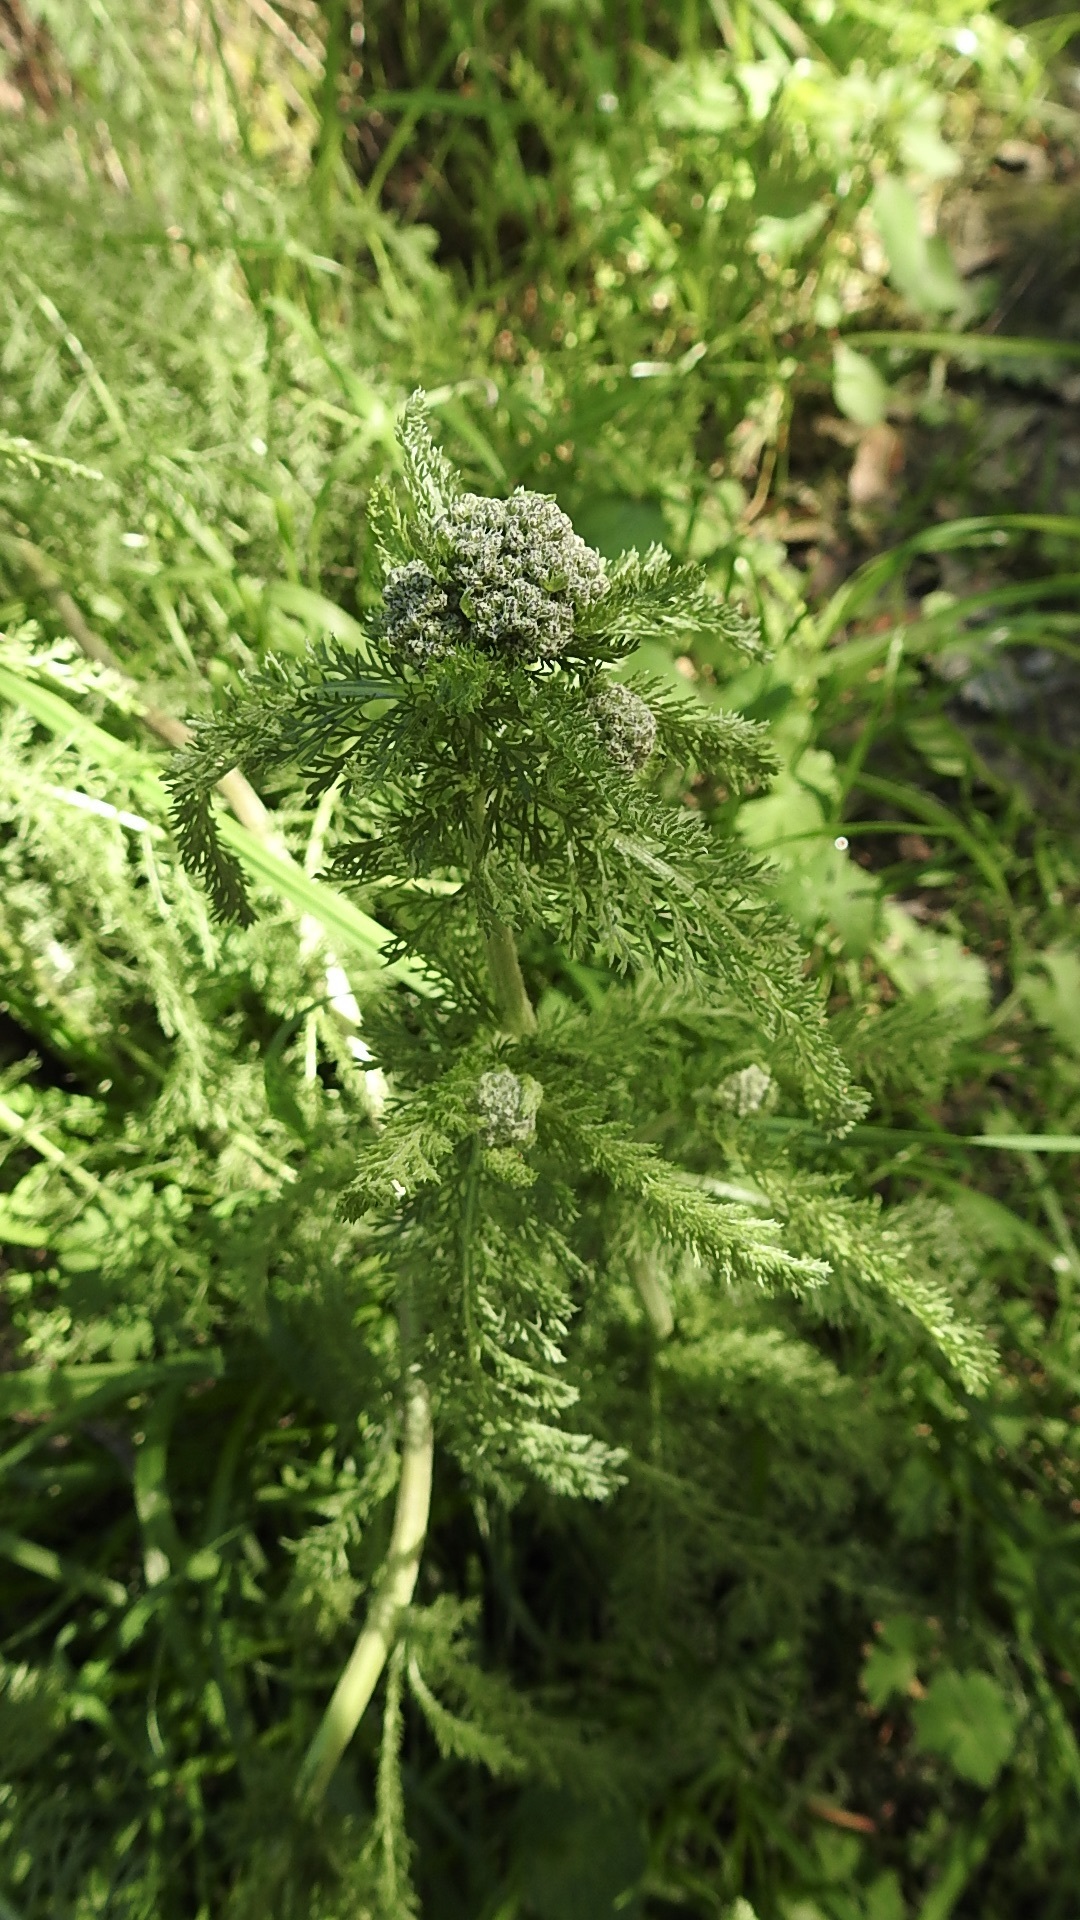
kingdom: Plantae
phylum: Tracheophyta
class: Magnoliopsida
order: Asterales
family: Asteraceae
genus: Achillea
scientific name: Achillea millefolium
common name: Yarrow
